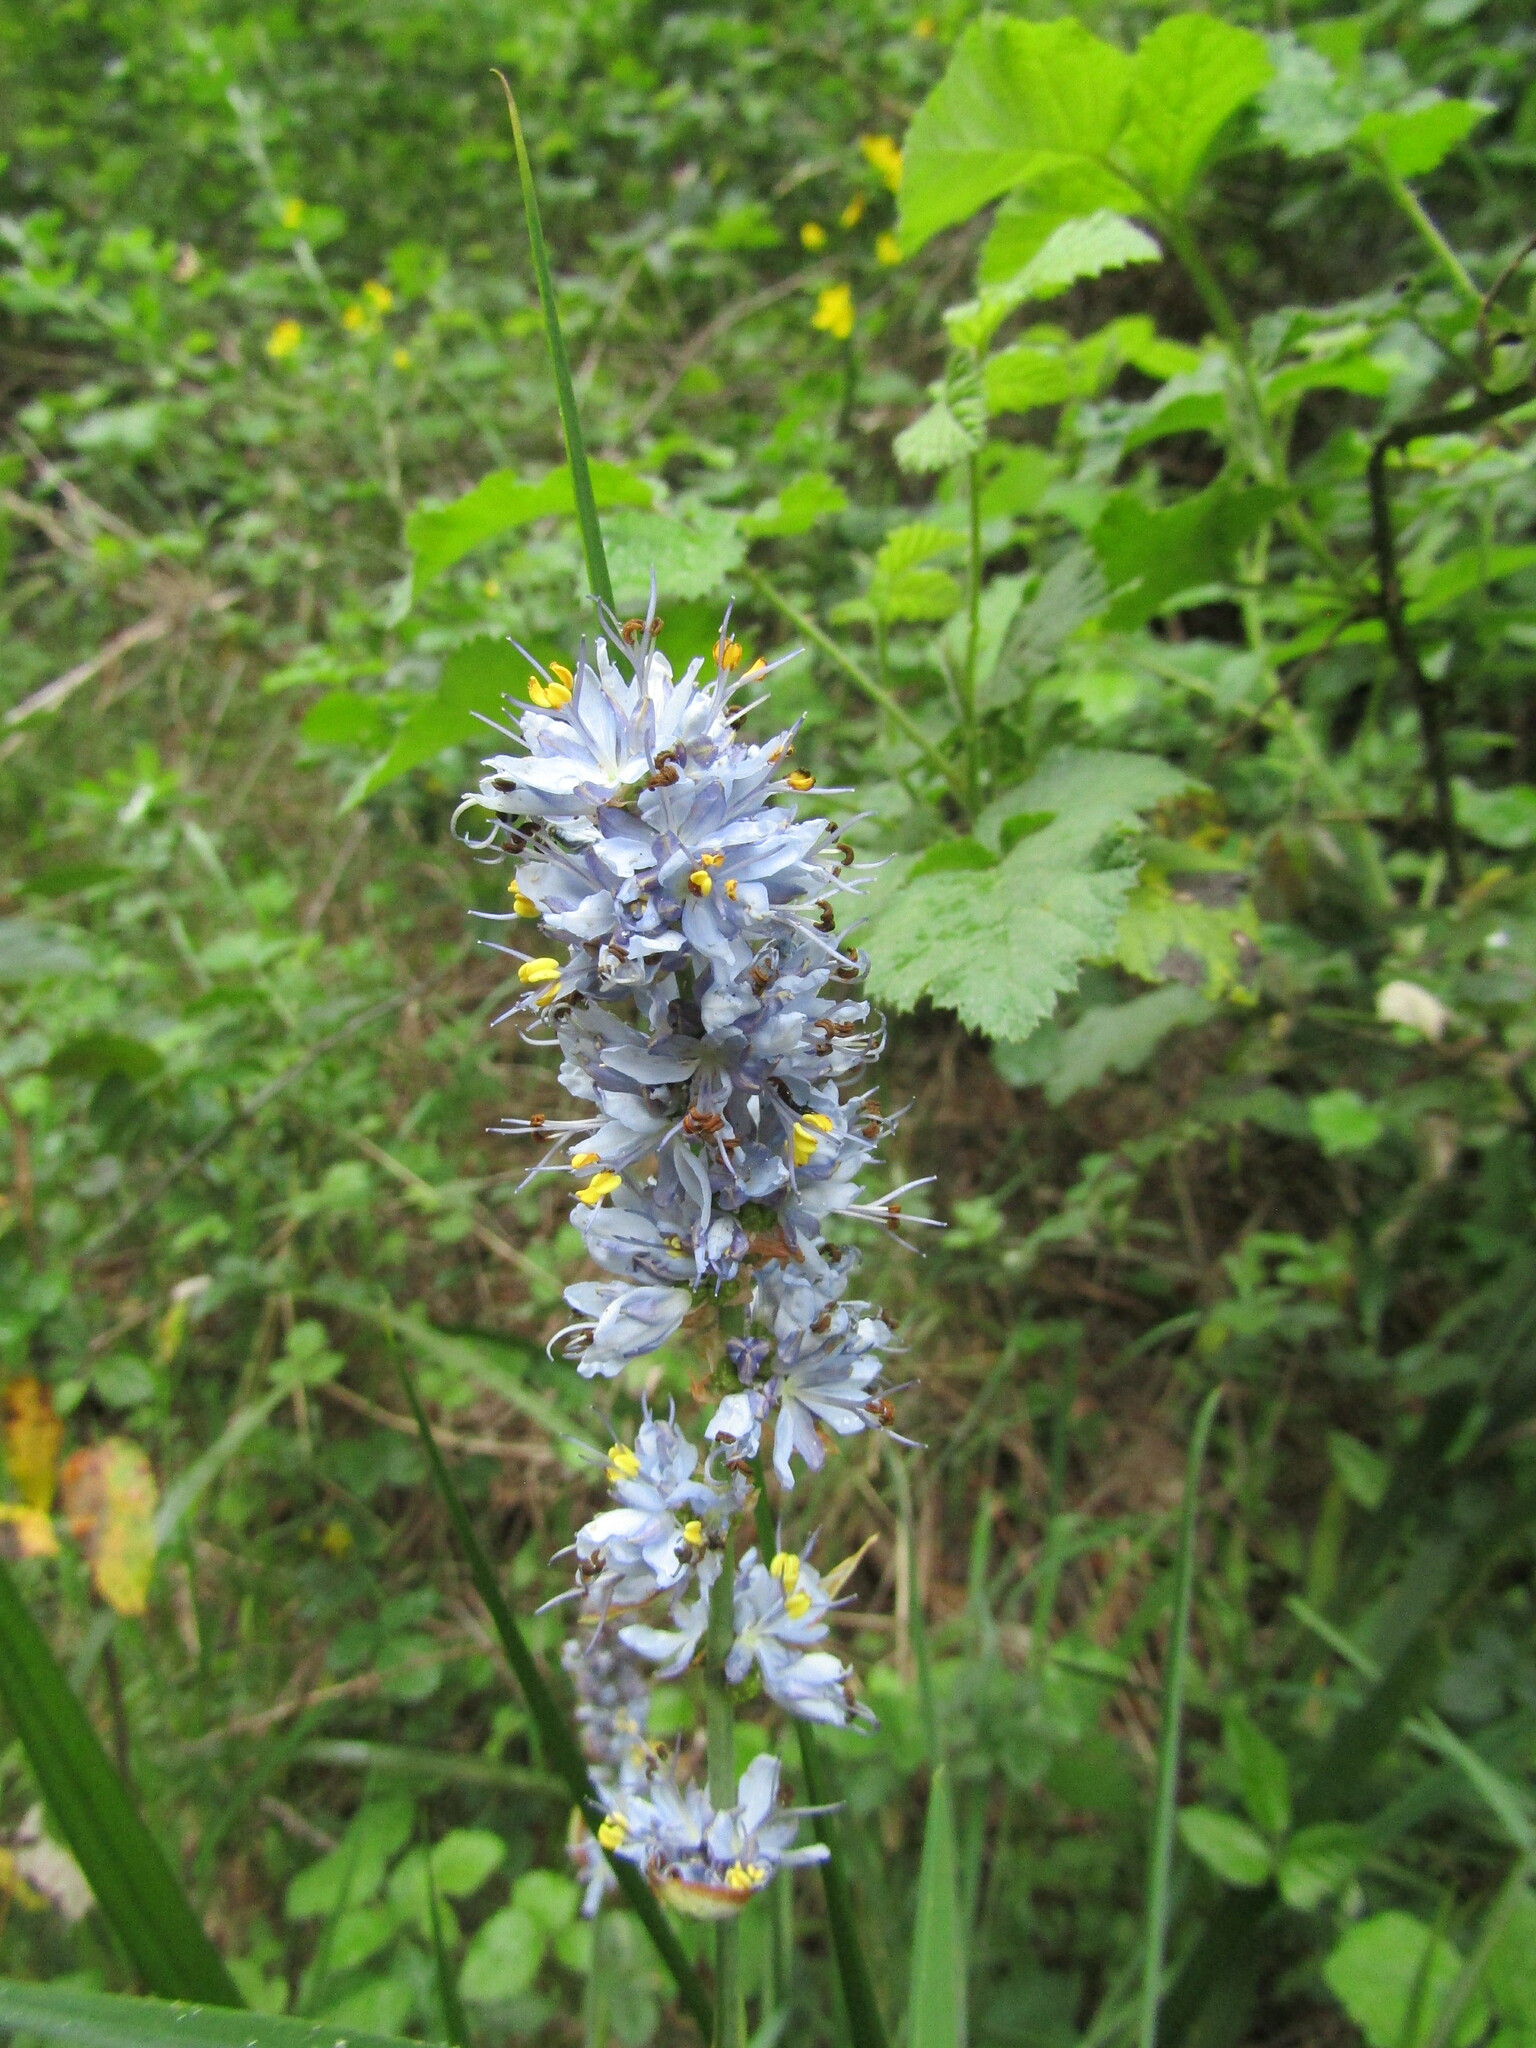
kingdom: Plantae
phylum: Tracheophyta
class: Liliopsida
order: Asparagales
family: Iridaceae
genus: Libertia
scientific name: Libertia sessiliflora
